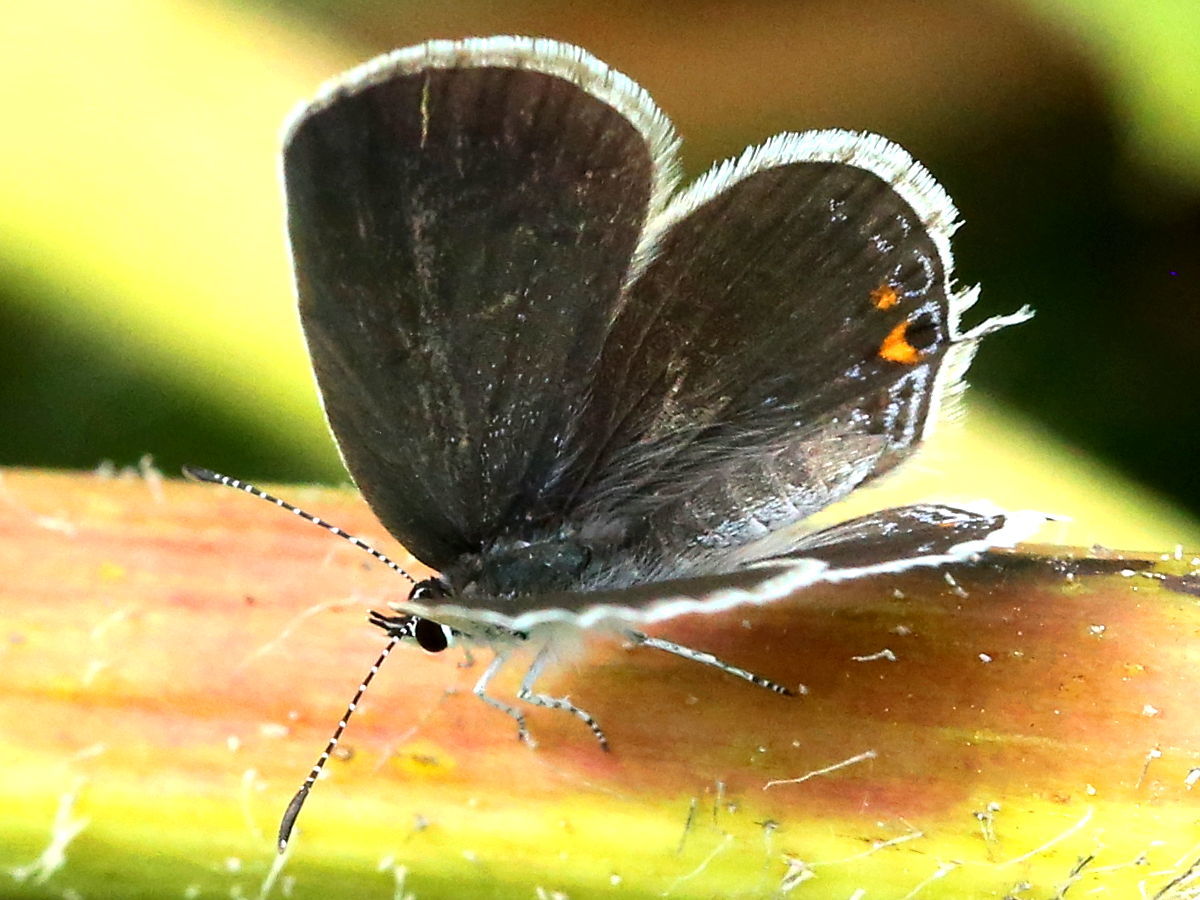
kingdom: Animalia
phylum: Arthropoda
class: Insecta
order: Lepidoptera
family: Lycaenidae
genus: Elkalyce
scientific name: Elkalyce comyntas
